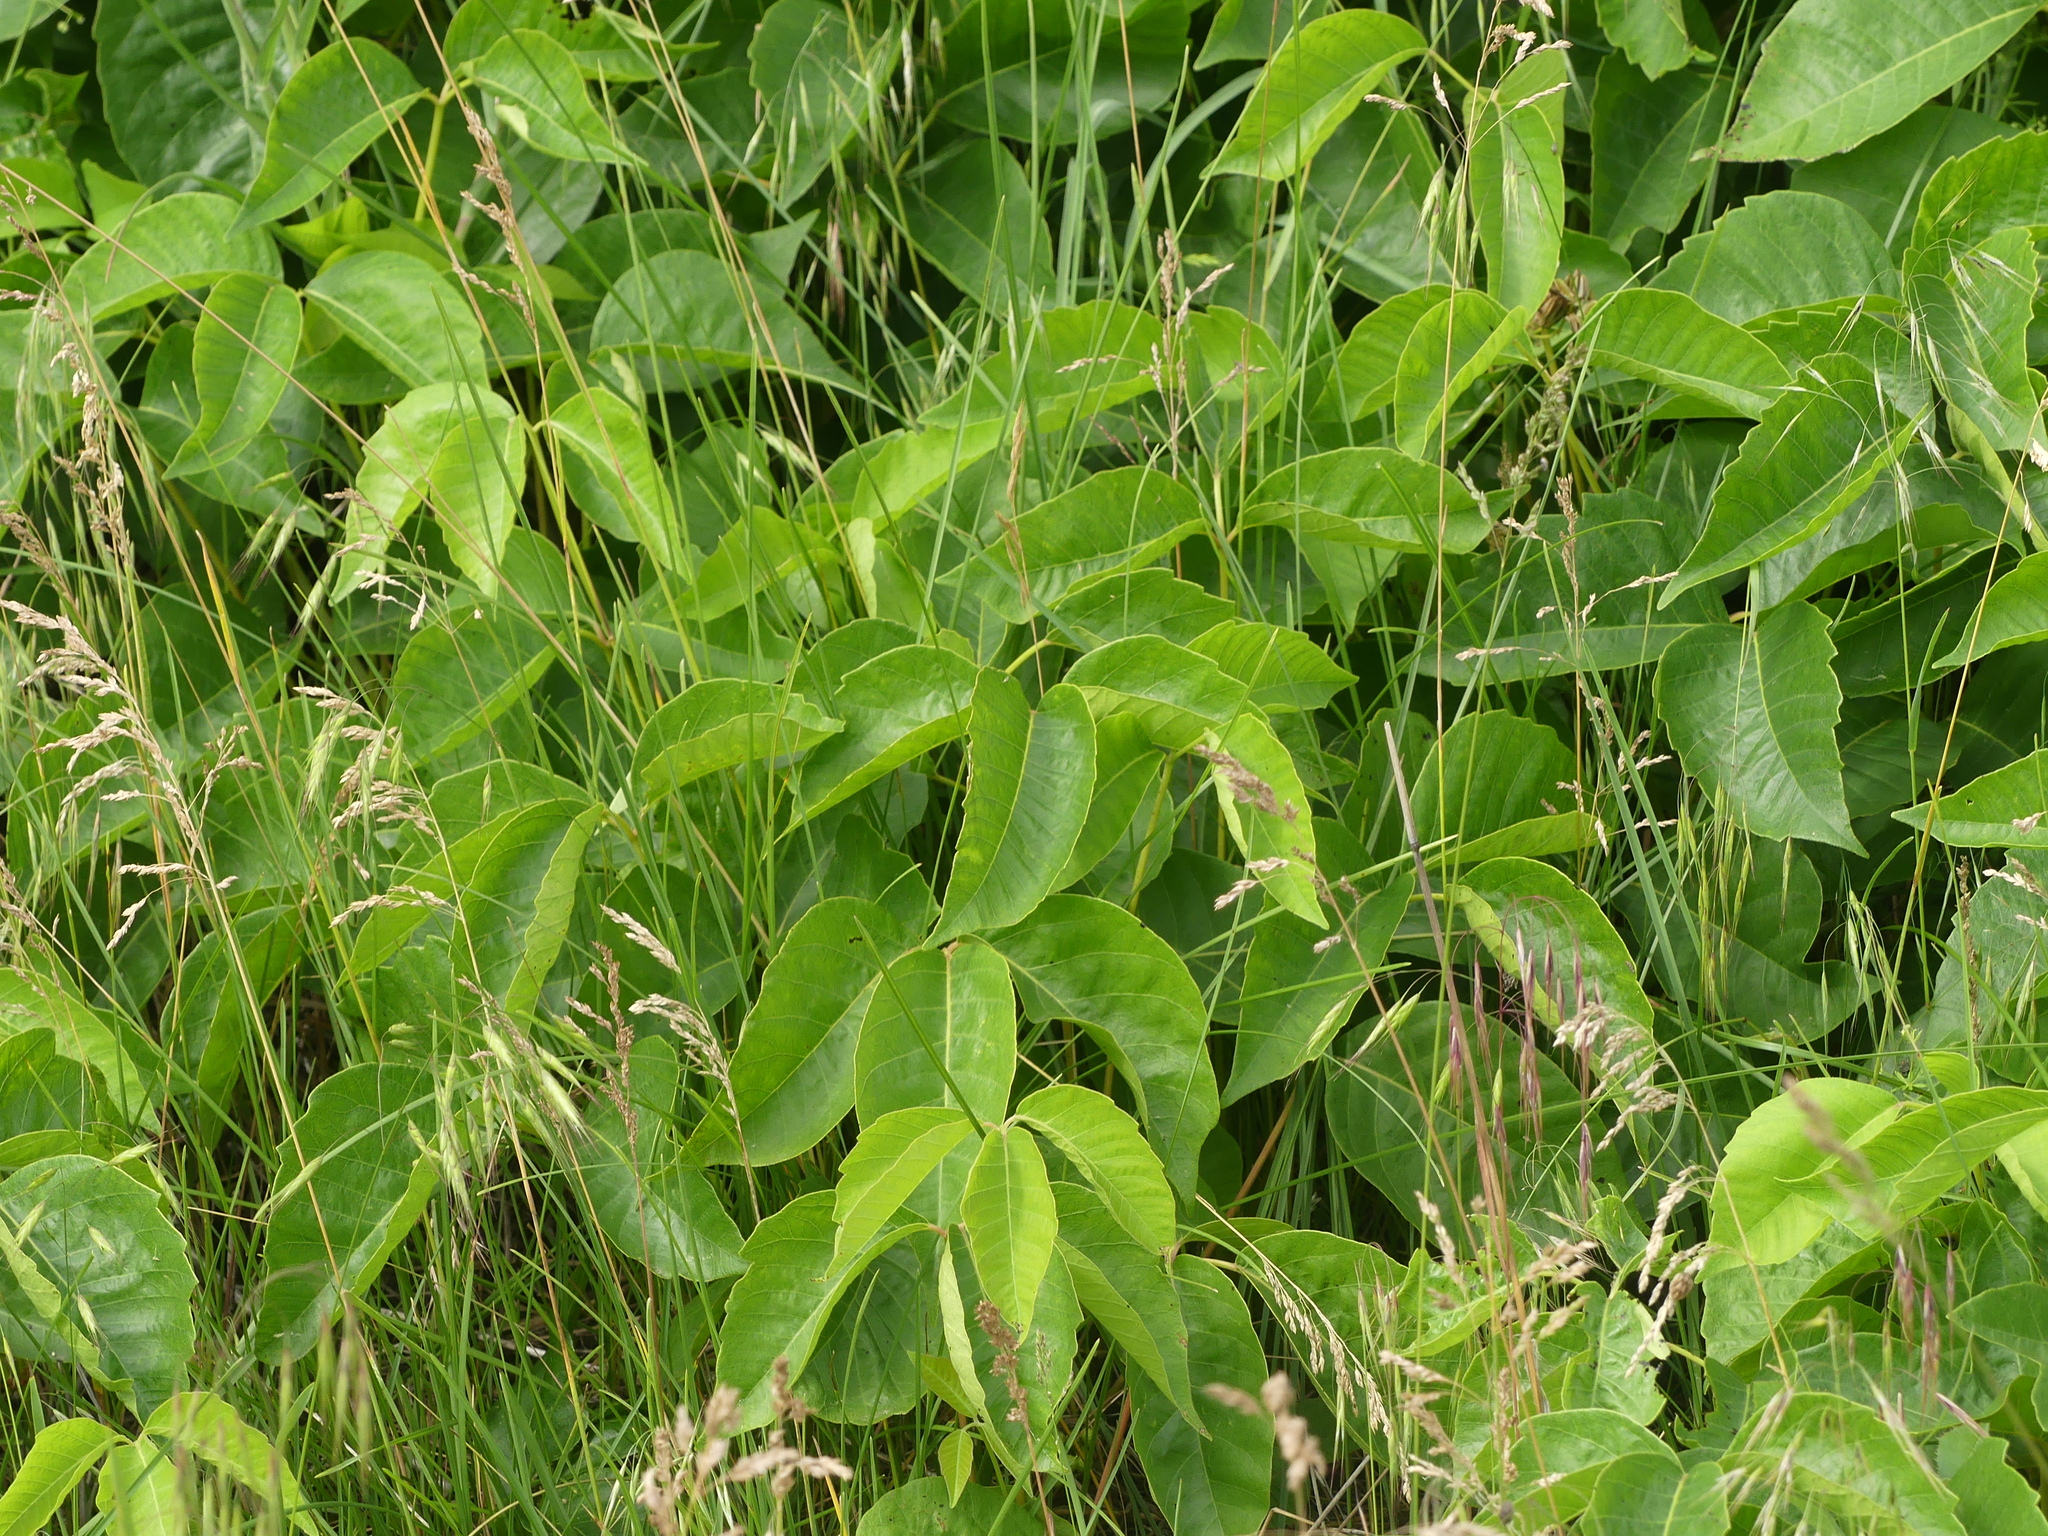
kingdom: Plantae
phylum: Tracheophyta
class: Magnoliopsida
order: Sapindales
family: Anacardiaceae
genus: Toxicodendron
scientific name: Toxicodendron rydbergii
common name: Rydberg's poison-ivy
